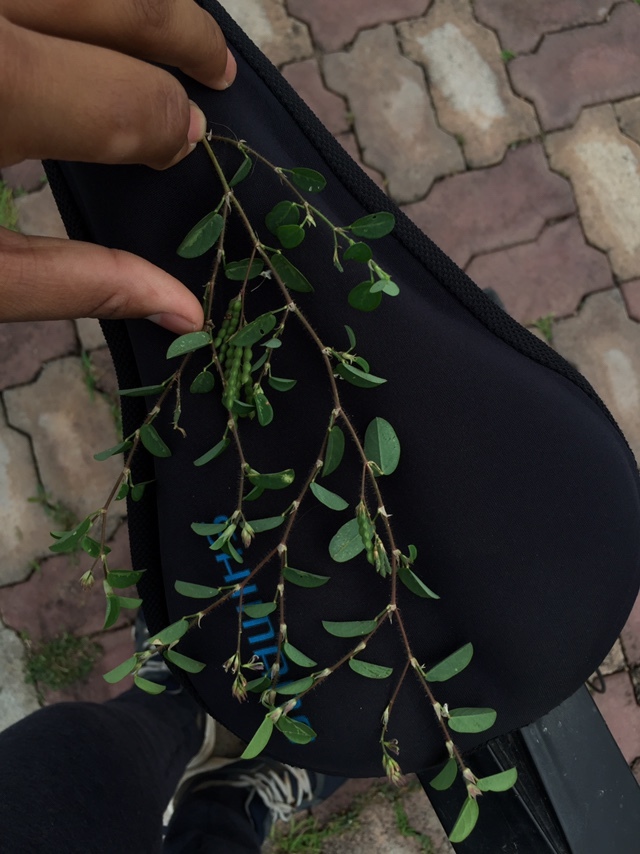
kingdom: Plantae
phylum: Tracheophyta
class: Magnoliopsida
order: Fabales
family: Fabaceae
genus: Alysicarpus
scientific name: Alysicarpus monilifer
